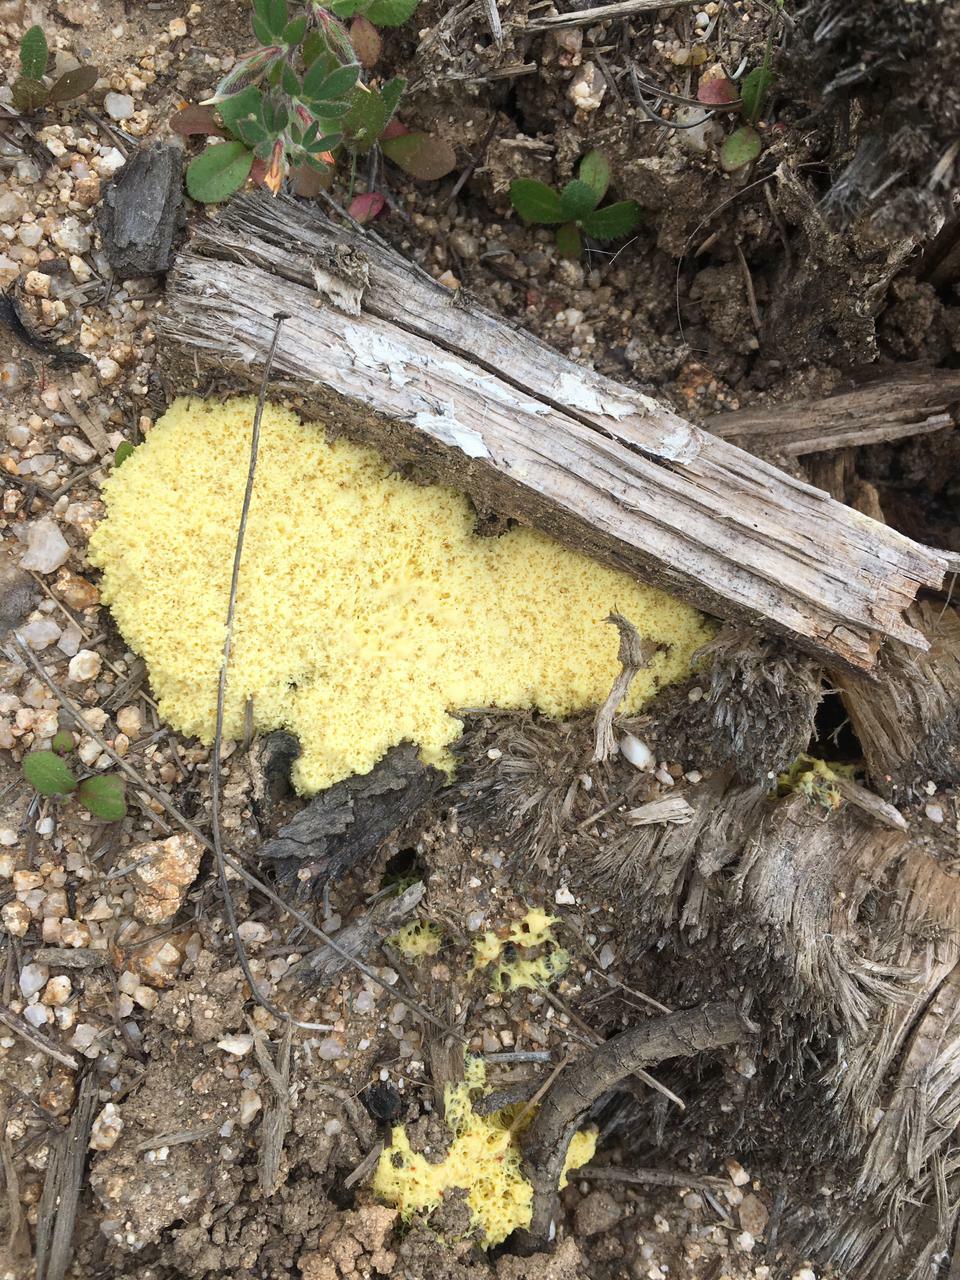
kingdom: Protozoa
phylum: Mycetozoa
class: Myxomycetes
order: Physarales
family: Physaraceae
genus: Fuligo
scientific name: Fuligo septica
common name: Dog vomit slime mold
